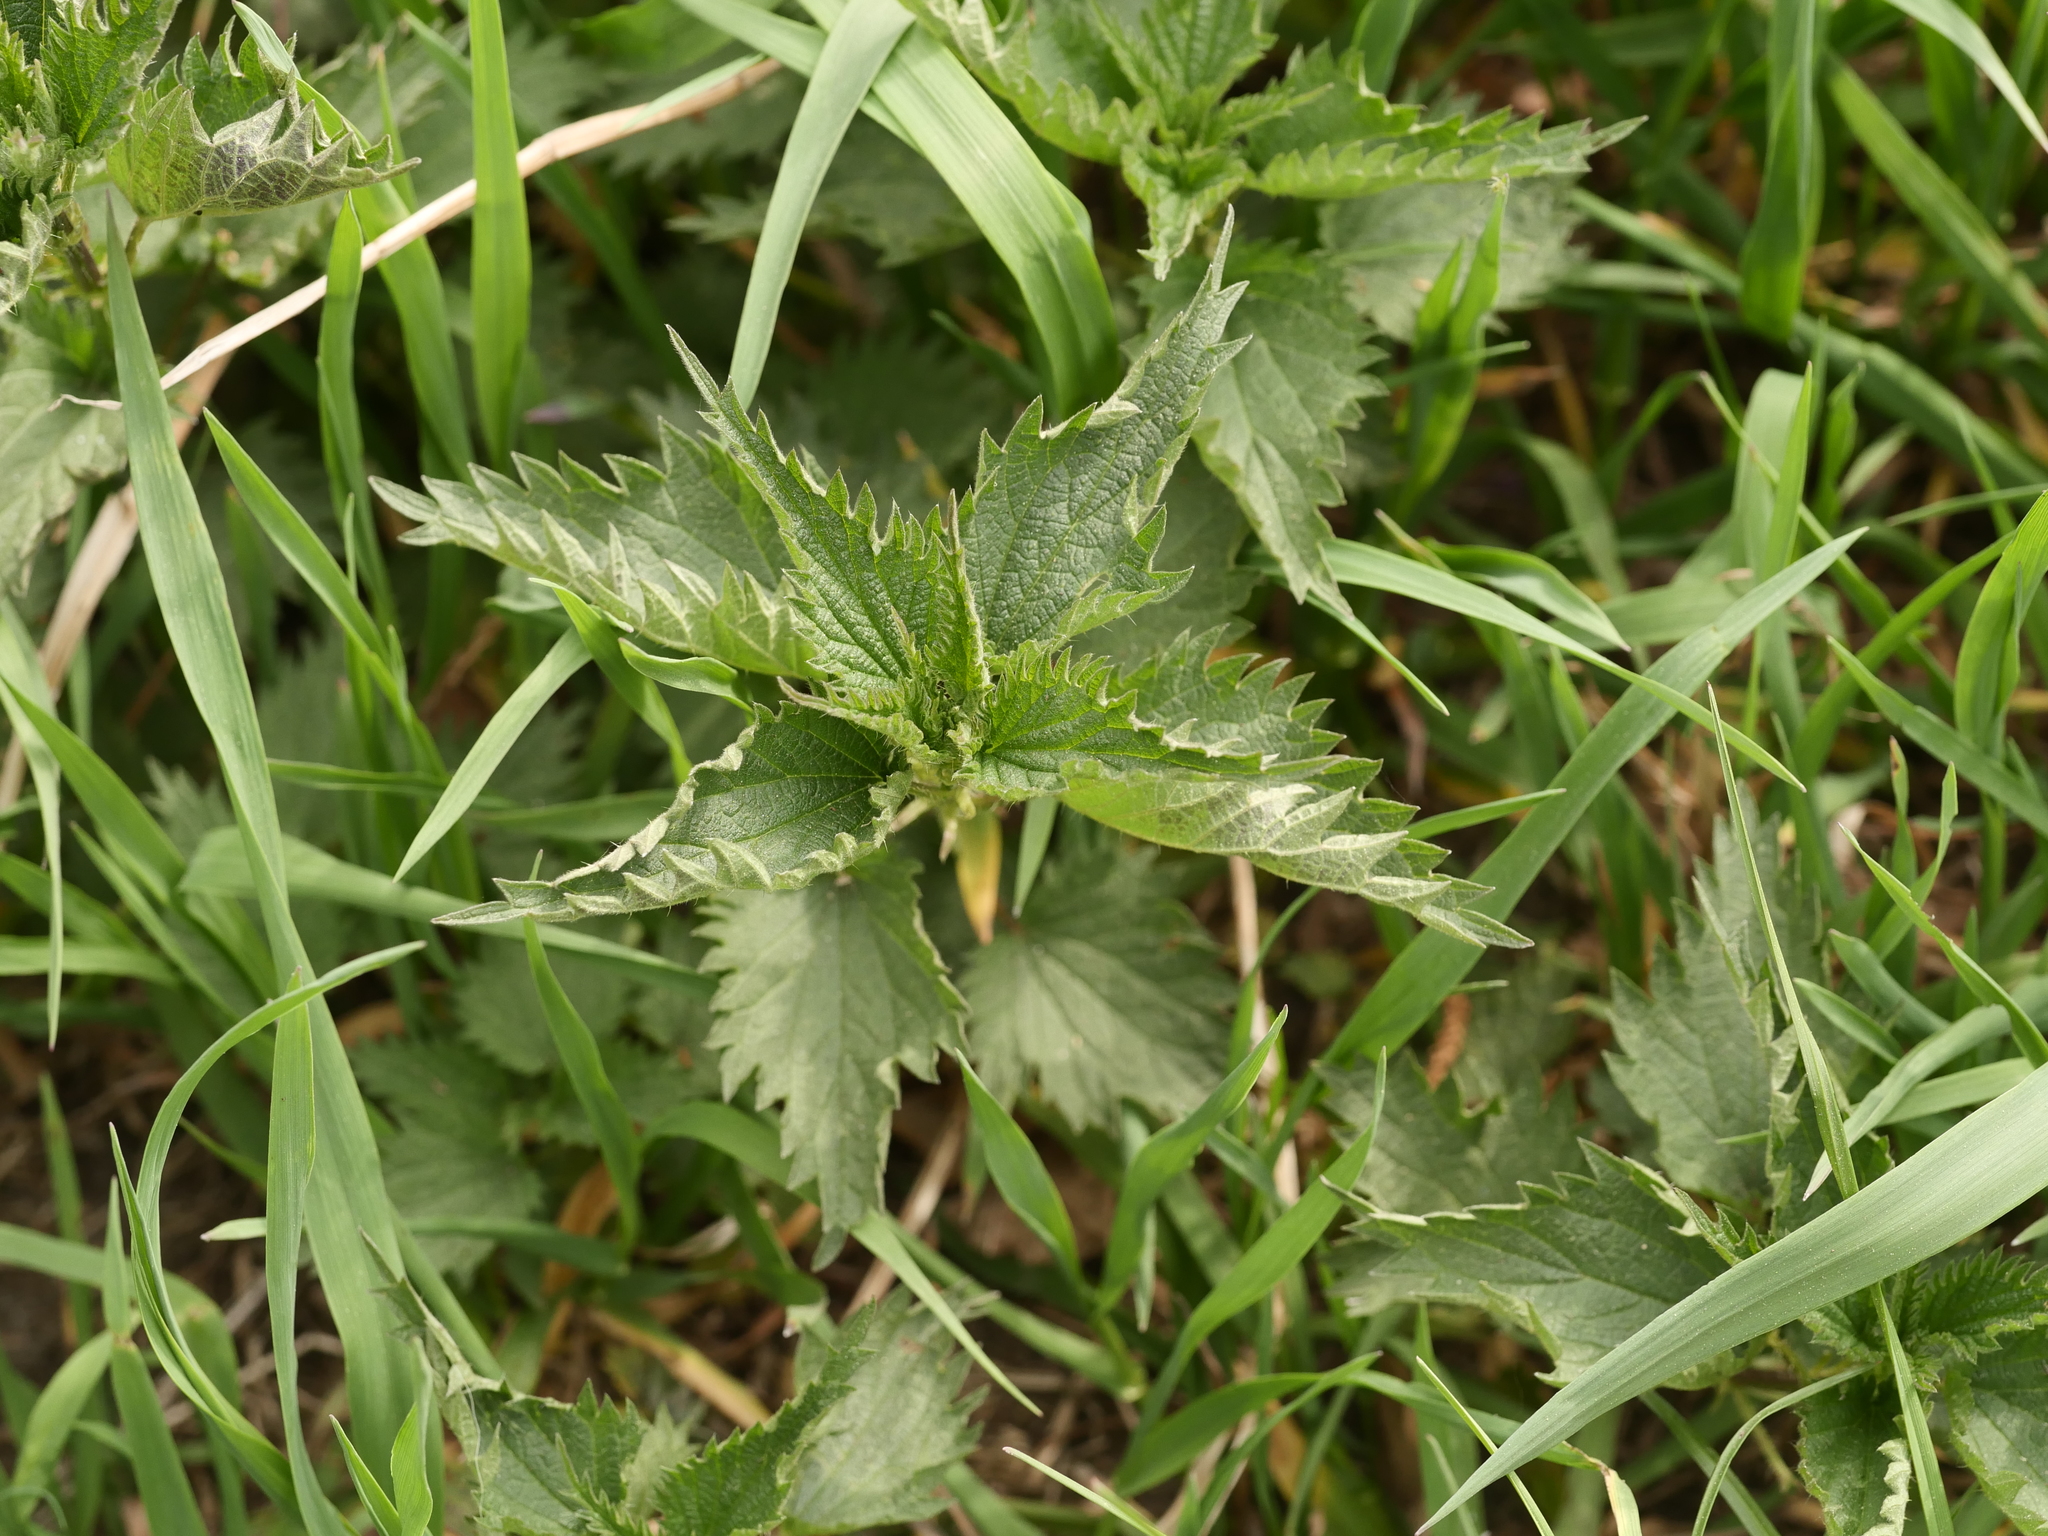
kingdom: Plantae
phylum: Tracheophyta
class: Magnoliopsida
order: Rosales
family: Urticaceae
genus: Urtica
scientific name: Urtica dioica
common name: Common nettle
